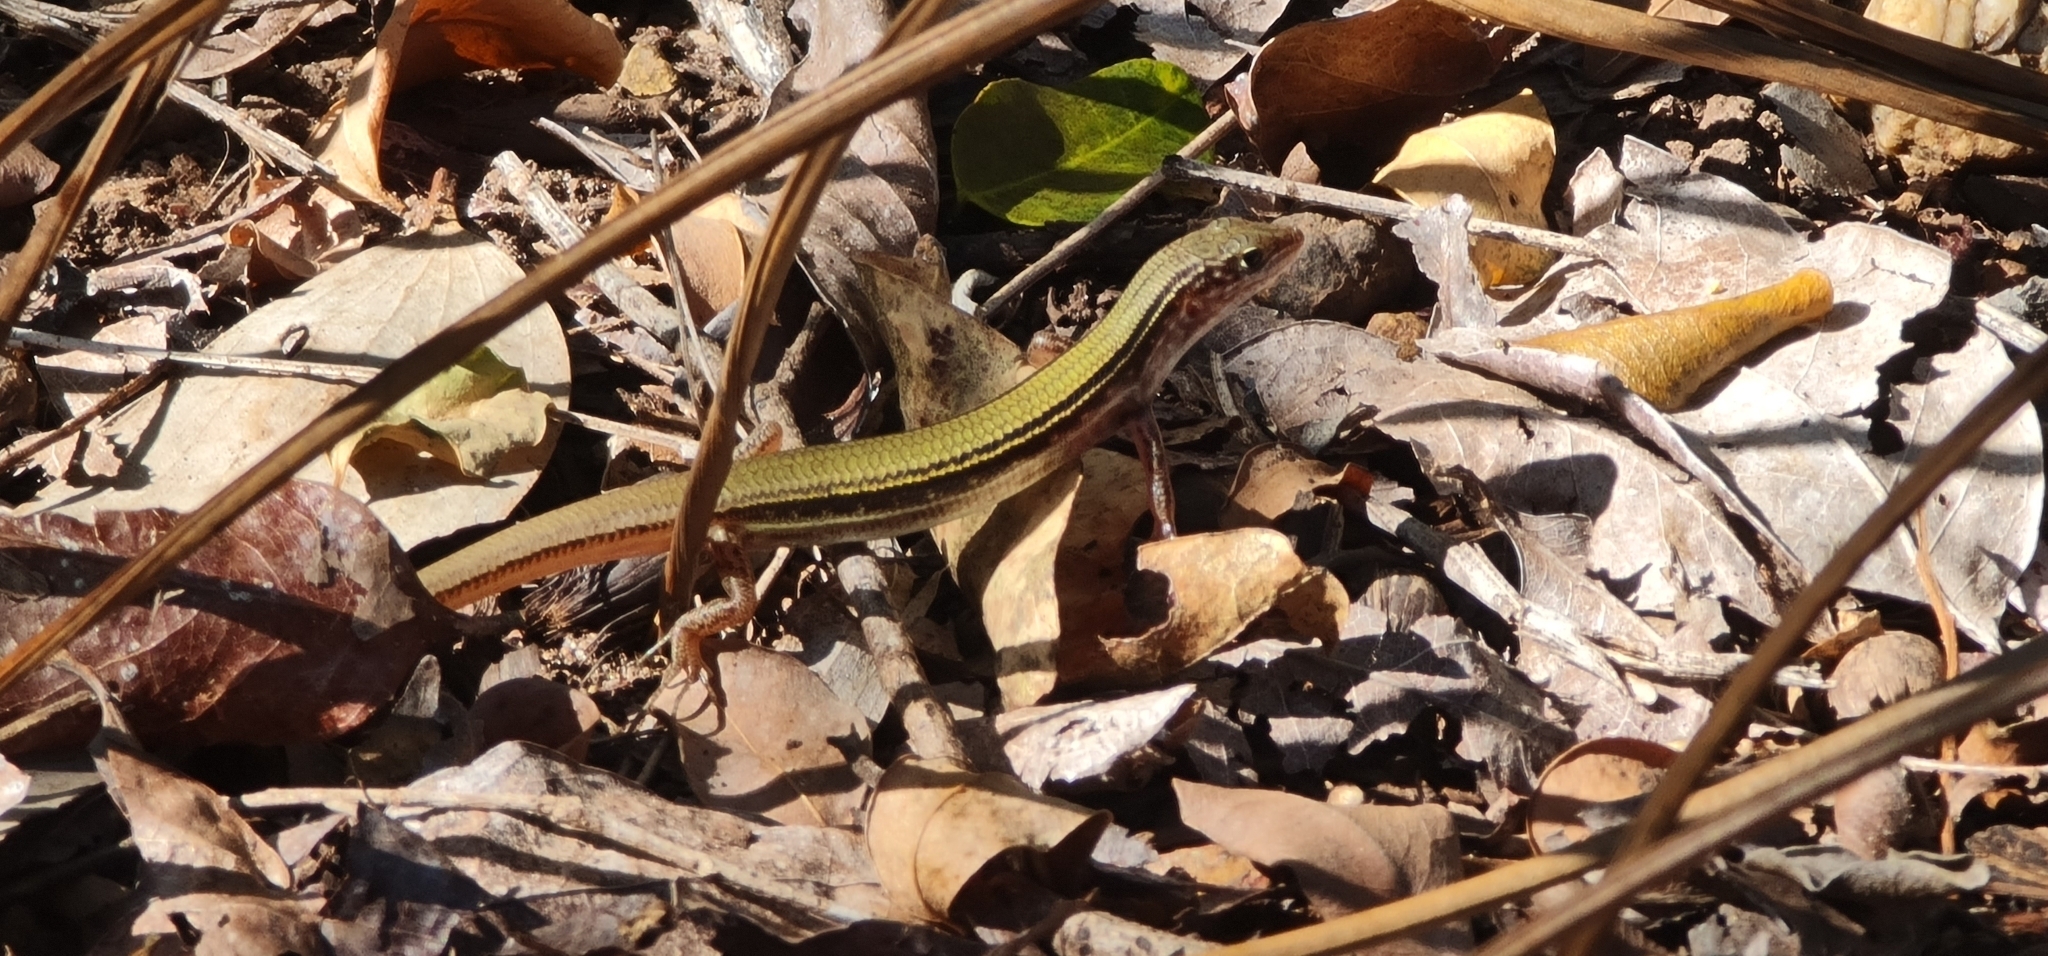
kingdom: Animalia
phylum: Chordata
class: Squamata
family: Scincidae
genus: Ctenotus
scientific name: Ctenotus essingtonii
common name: Lowlands plain-backed ctenotus
